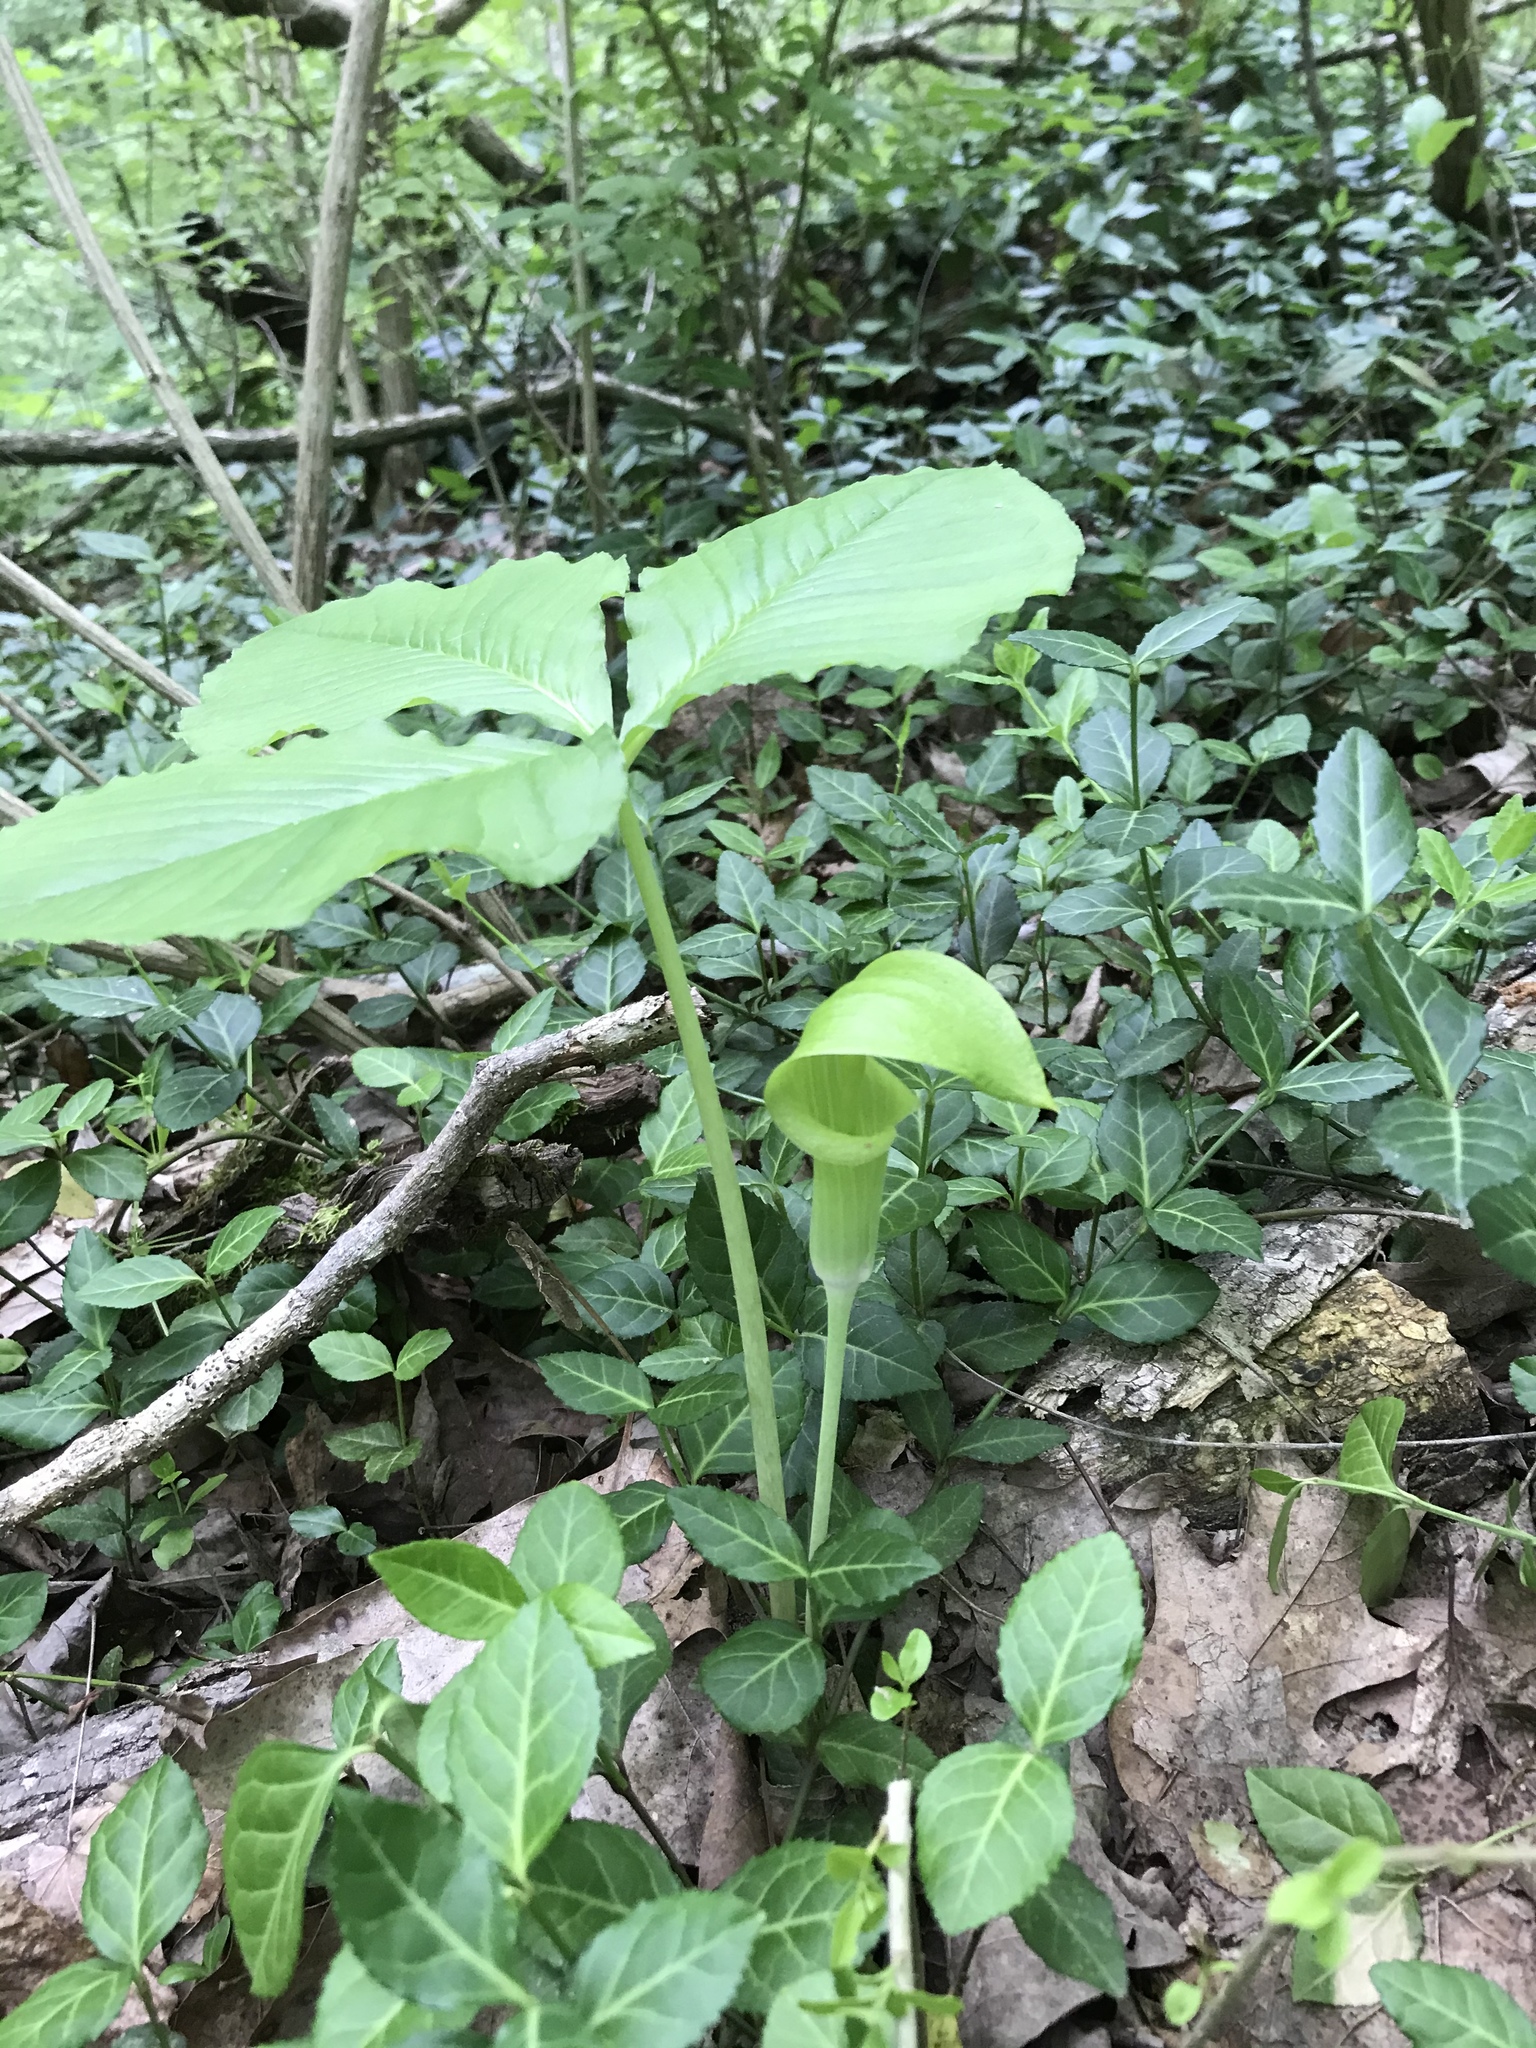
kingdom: Plantae
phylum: Tracheophyta
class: Liliopsida
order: Alismatales
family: Araceae
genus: Arisaema
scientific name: Arisaema triphyllum
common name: Jack-in-the-pulpit
